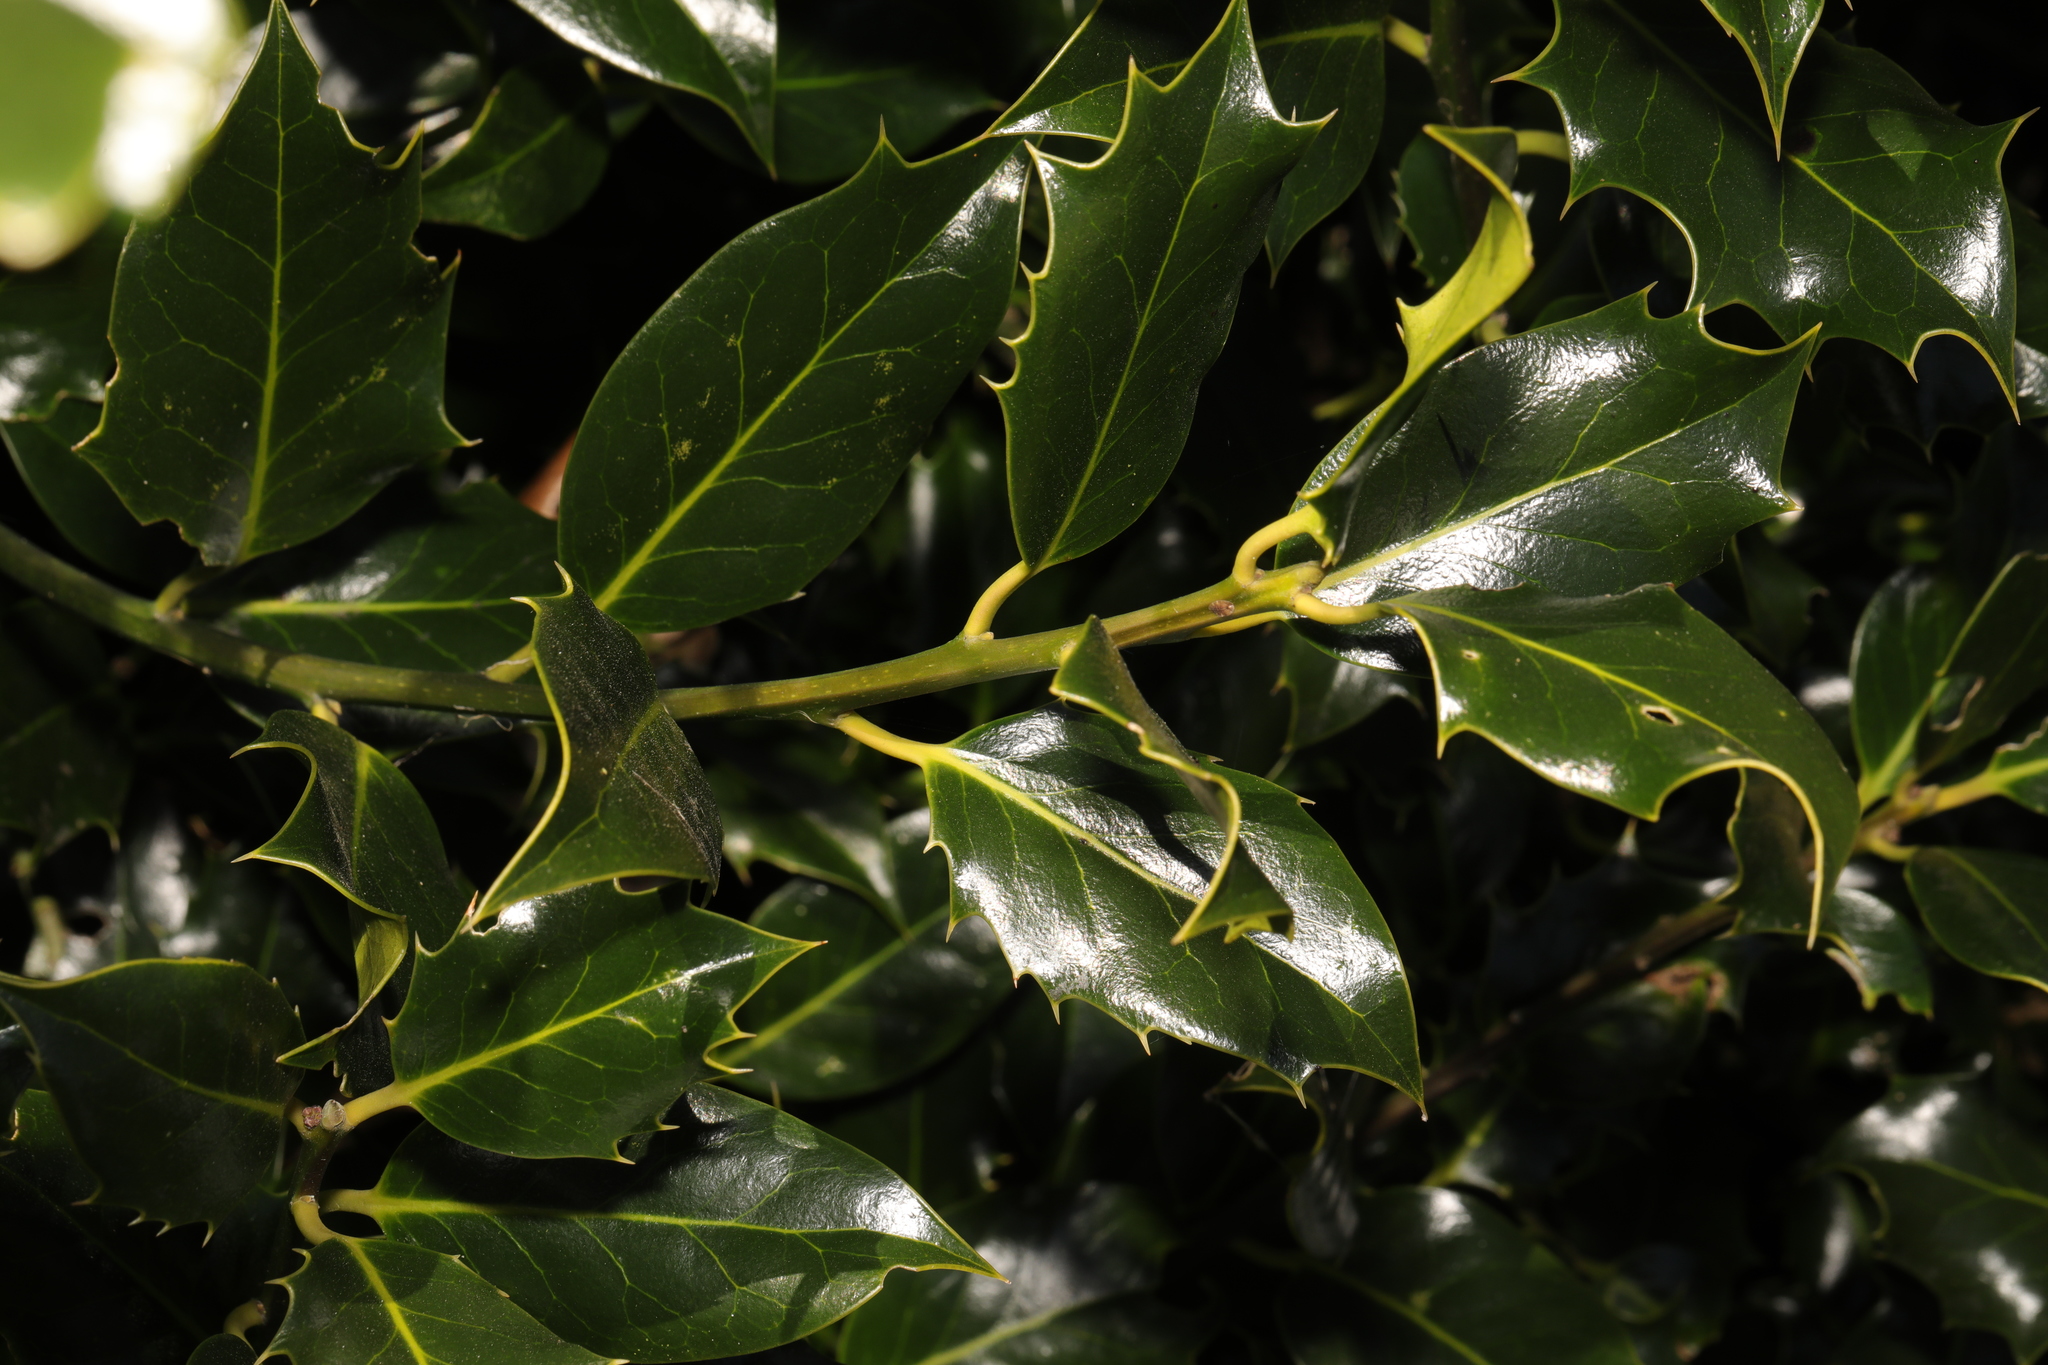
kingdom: Plantae
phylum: Tracheophyta
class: Magnoliopsida
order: Aquifoliales
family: Aquifoliaceae
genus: Ilex
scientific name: Ilex aquifolium
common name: English holly
